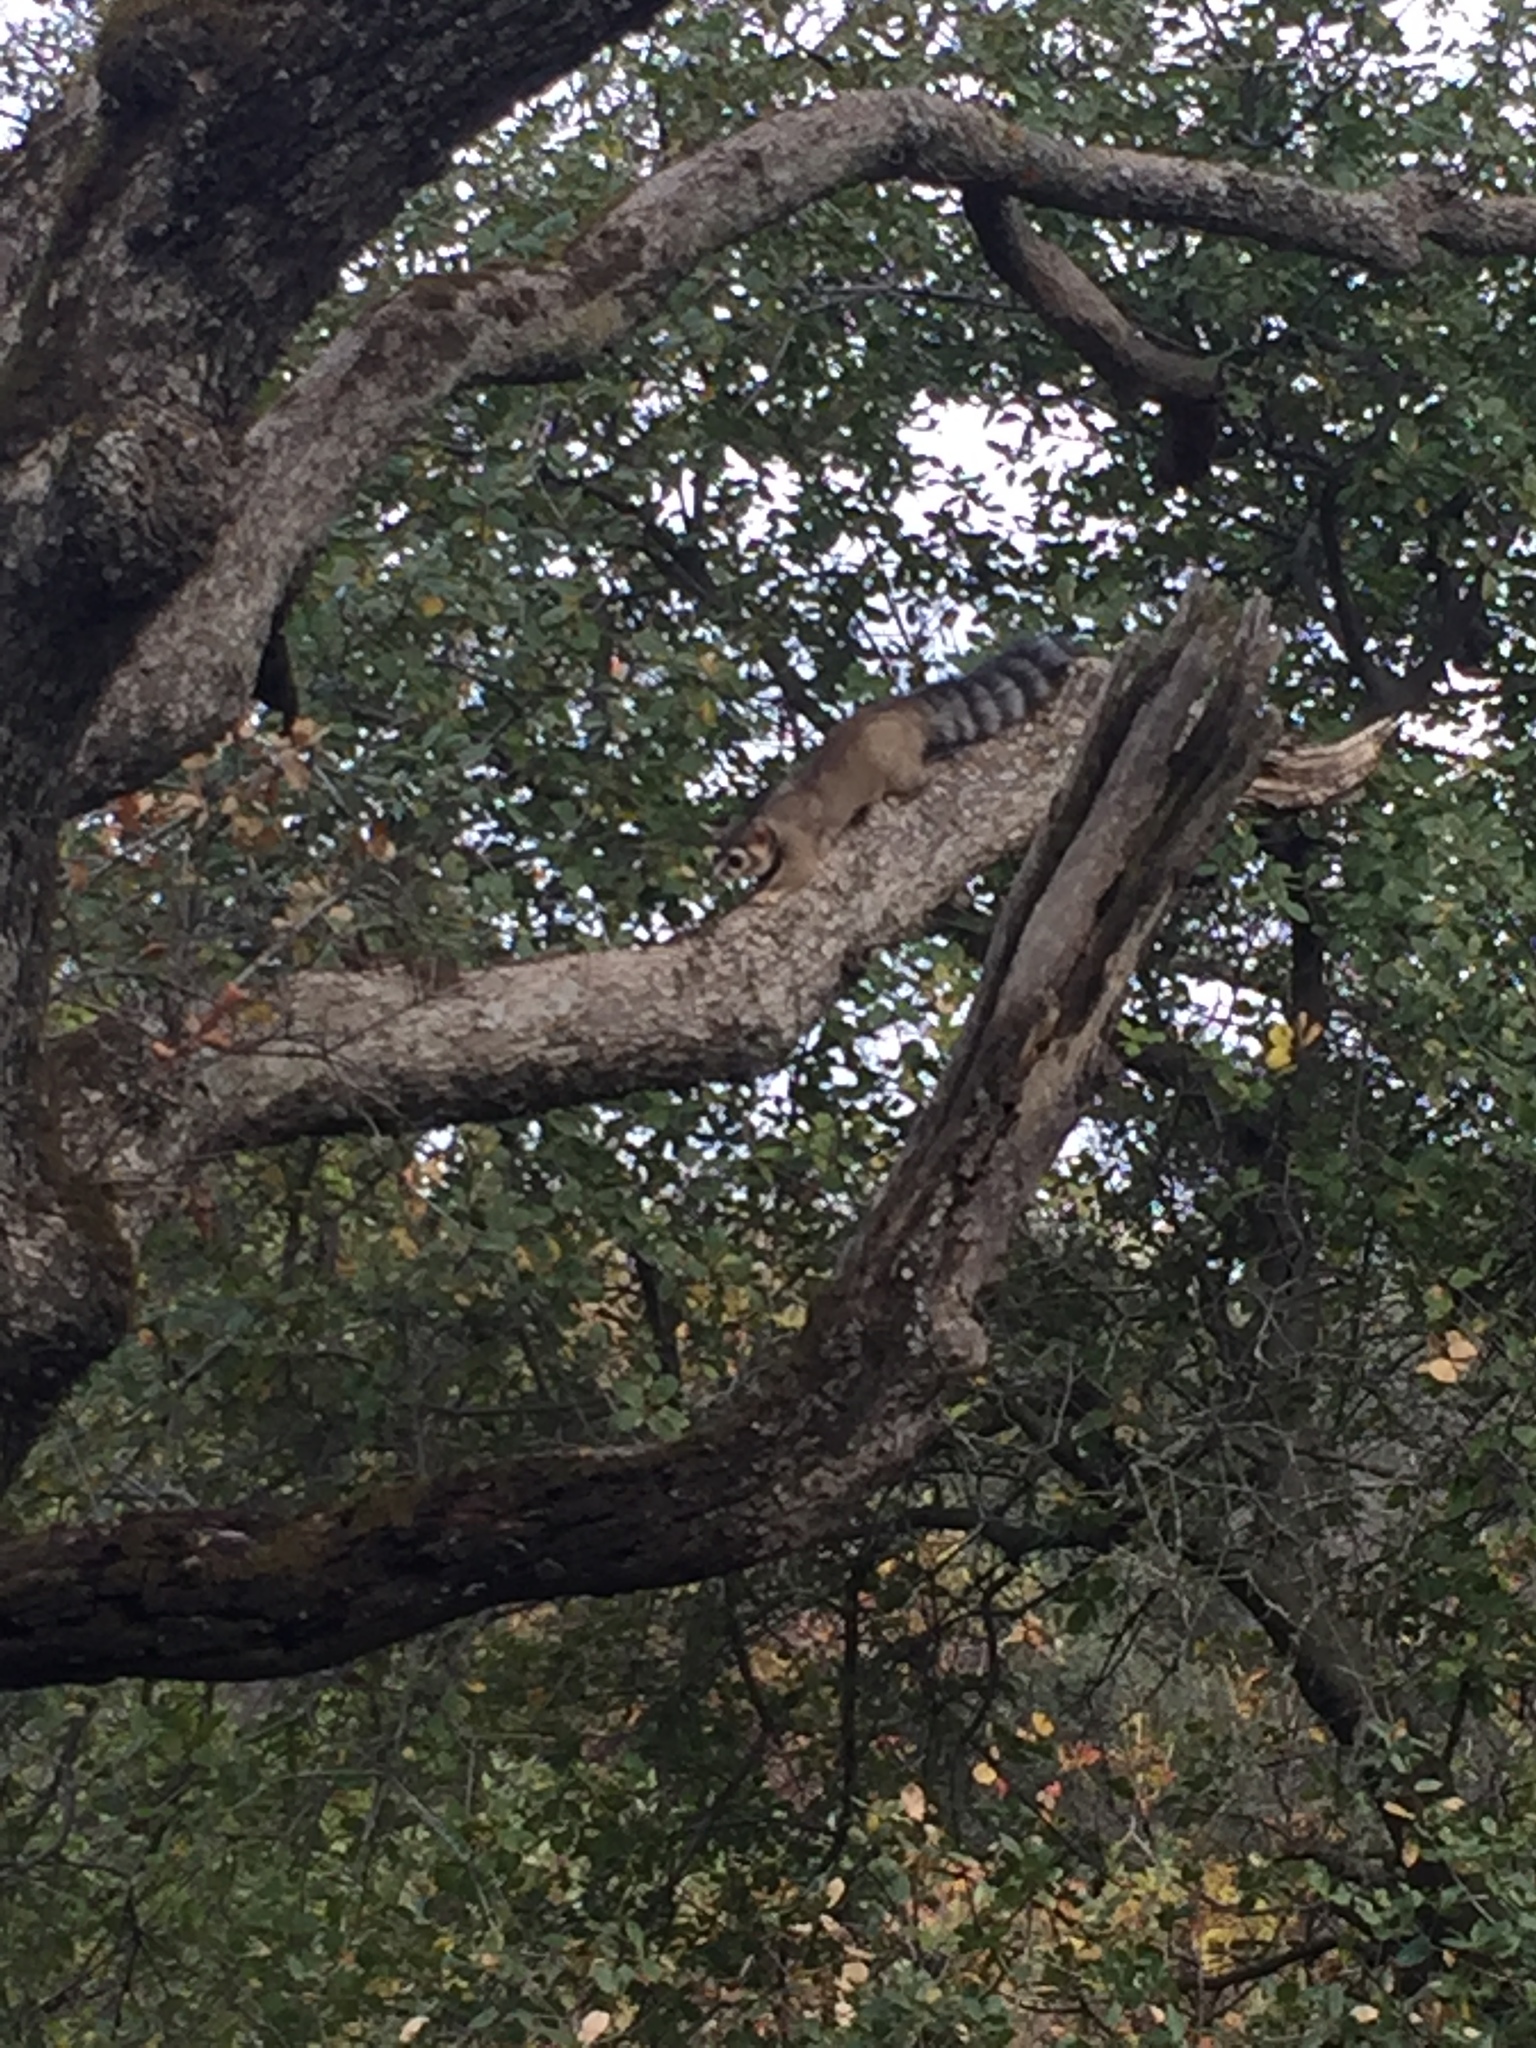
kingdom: Animalia
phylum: Chordata
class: Mammalia
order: Carnivora
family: Procyonidae
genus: Bassariscus
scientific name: Bassariscus astutus
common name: Ringtail
